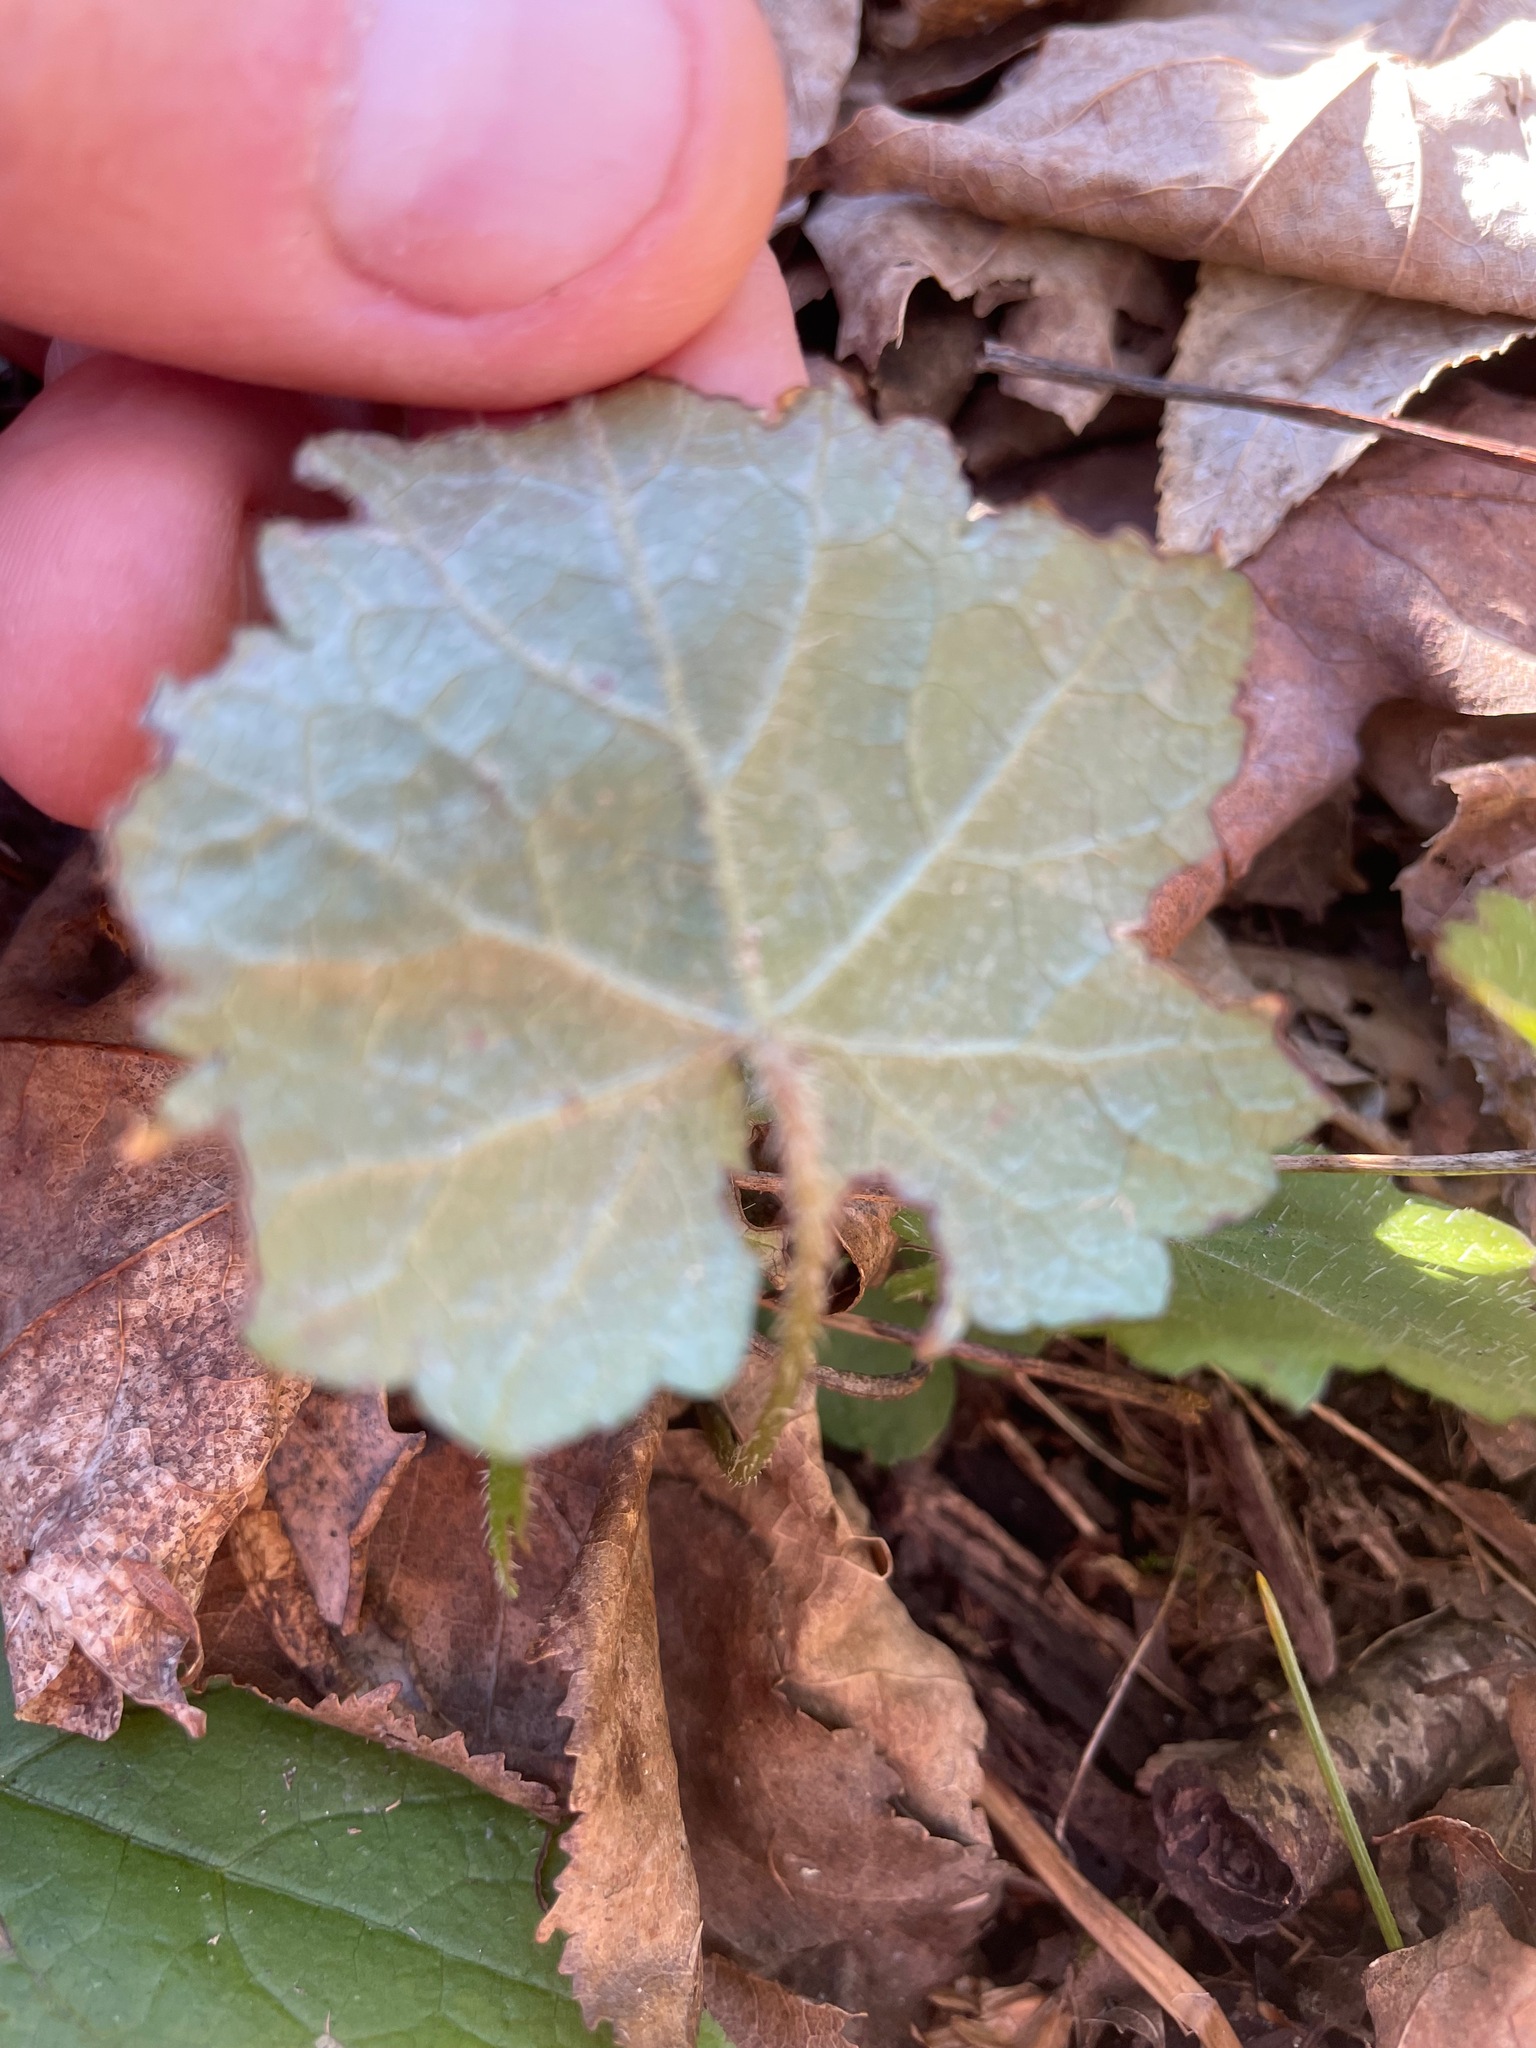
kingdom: Plantae
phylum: Tracheophyta
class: Magnoliopsida
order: Saxifragales
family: Saxifragaceae
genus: Mitella
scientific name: Mitella diphylla
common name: Coolwort
